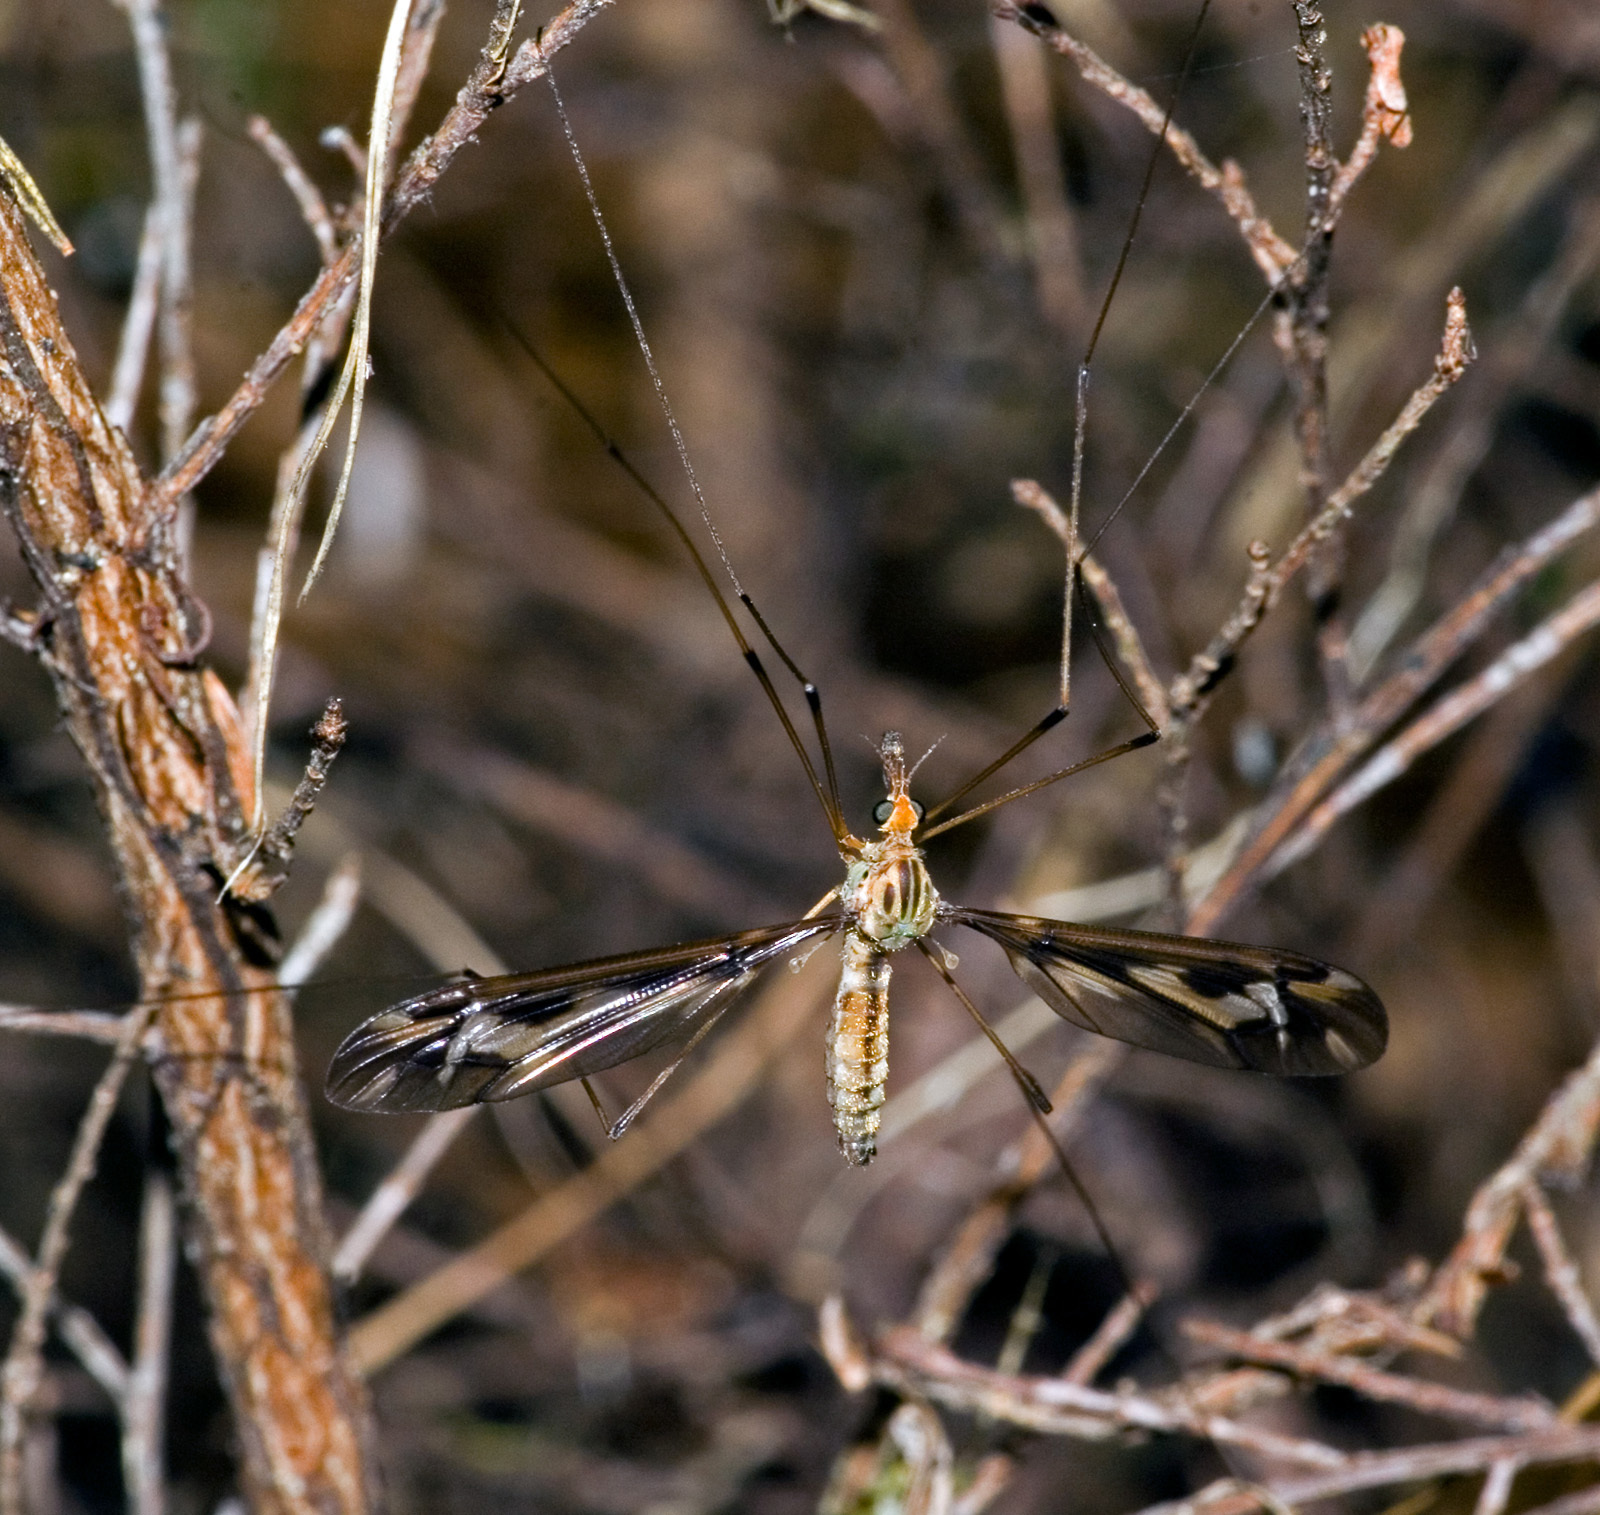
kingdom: Animalia
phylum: Arthropoda
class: Insecta
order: Diptera
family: Tipulidae
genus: Leptotarsus
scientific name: Leptotarsus huttoni
